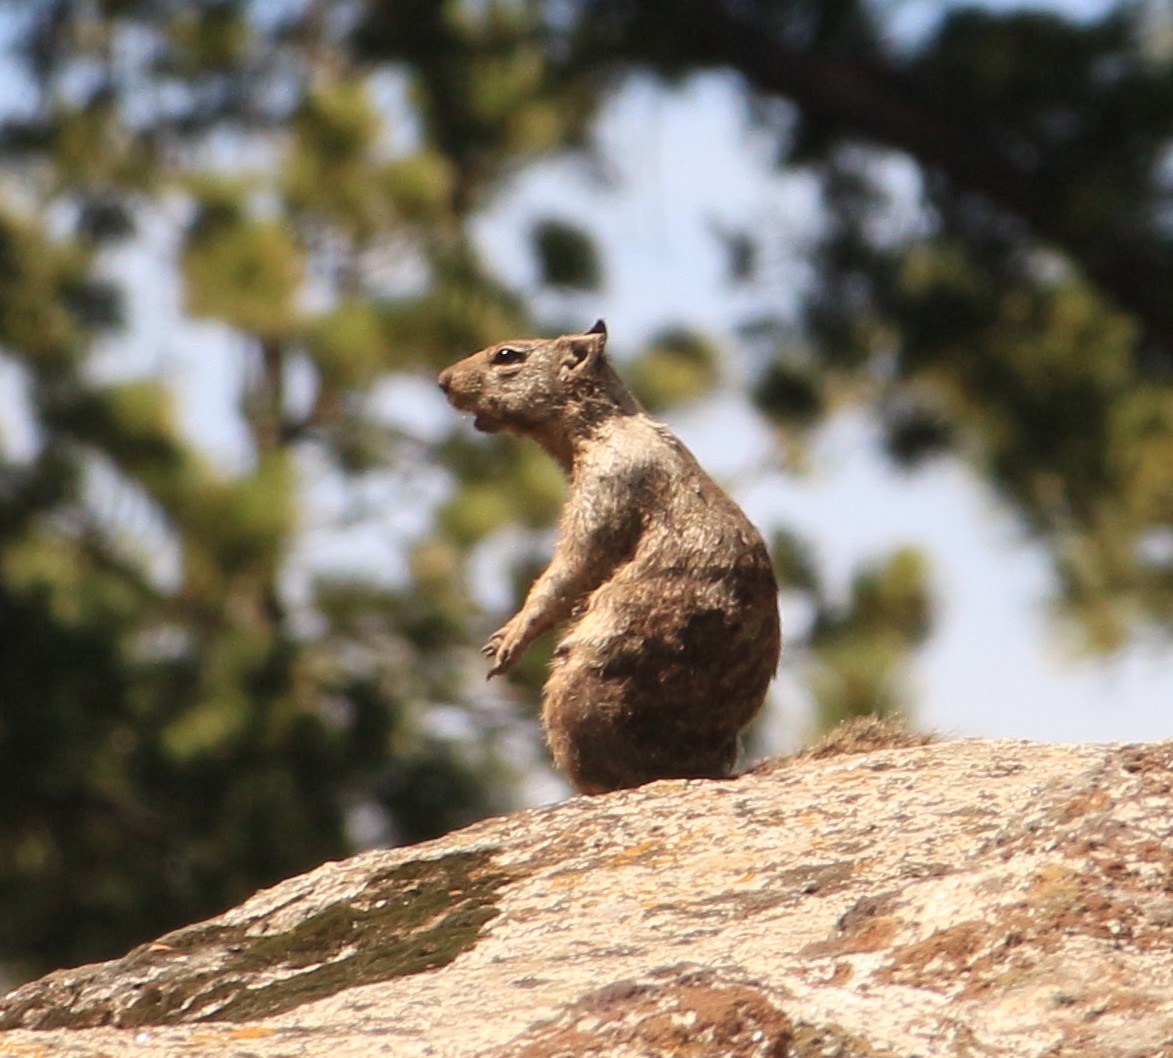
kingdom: Animalia
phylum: Chordata
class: Mammalia
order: Rodentia
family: Sciuridae
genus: Otospermophilus
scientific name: Otospermophilus beecheyi
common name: California ground squirrel
